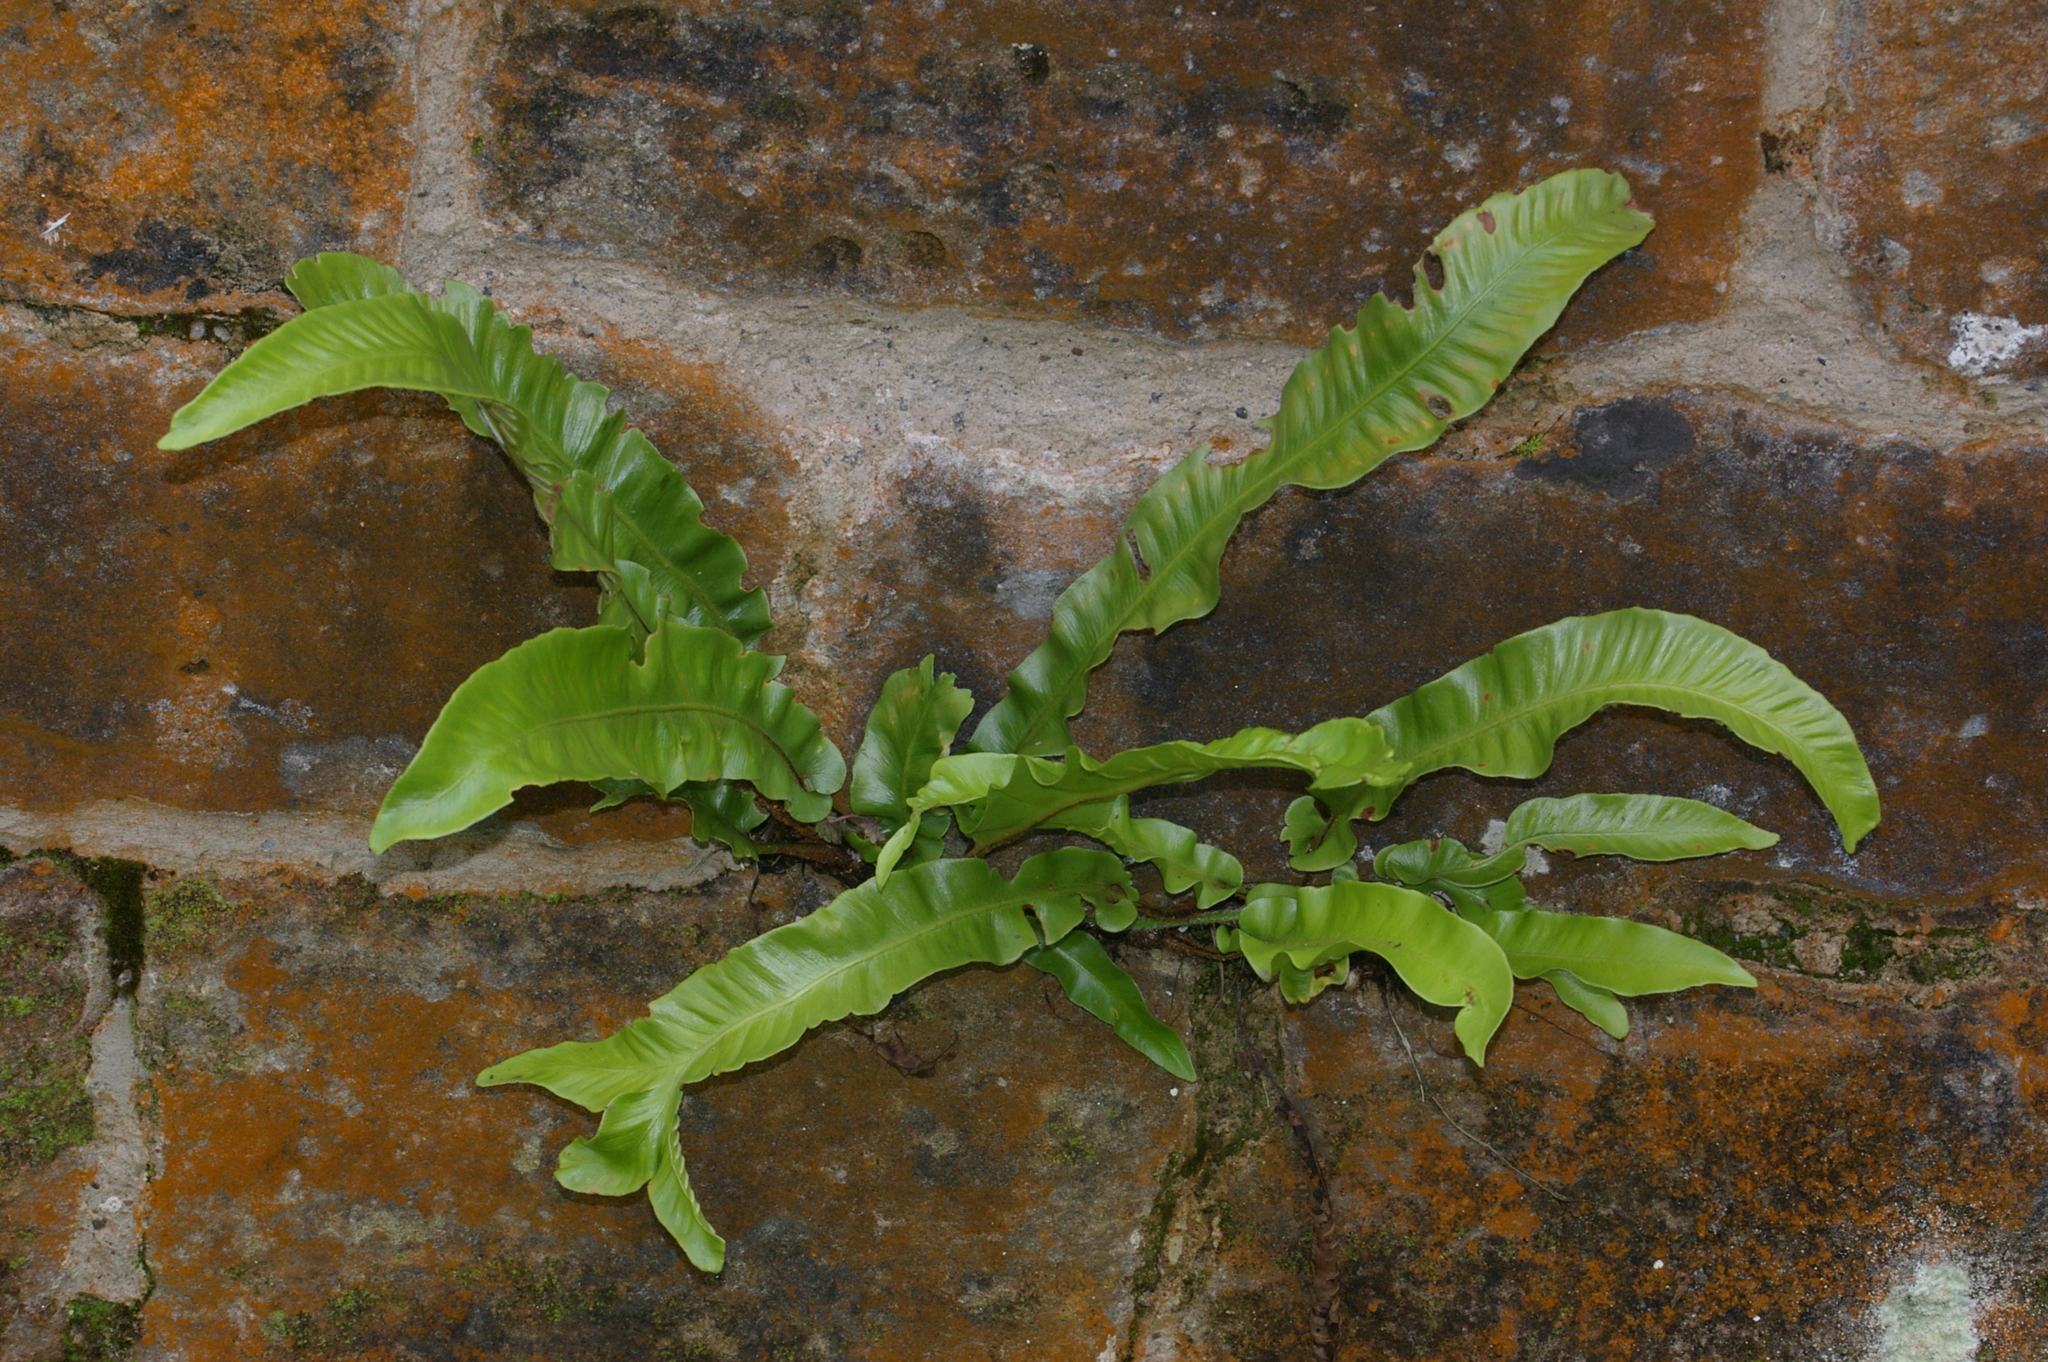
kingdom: Plantae
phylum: Tracheophyta
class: Polypodiopsida
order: Polypodiales
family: Aspleniaceae
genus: Asplenium
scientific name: Asplenium scolopendrium
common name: Hart's-tongue fern
